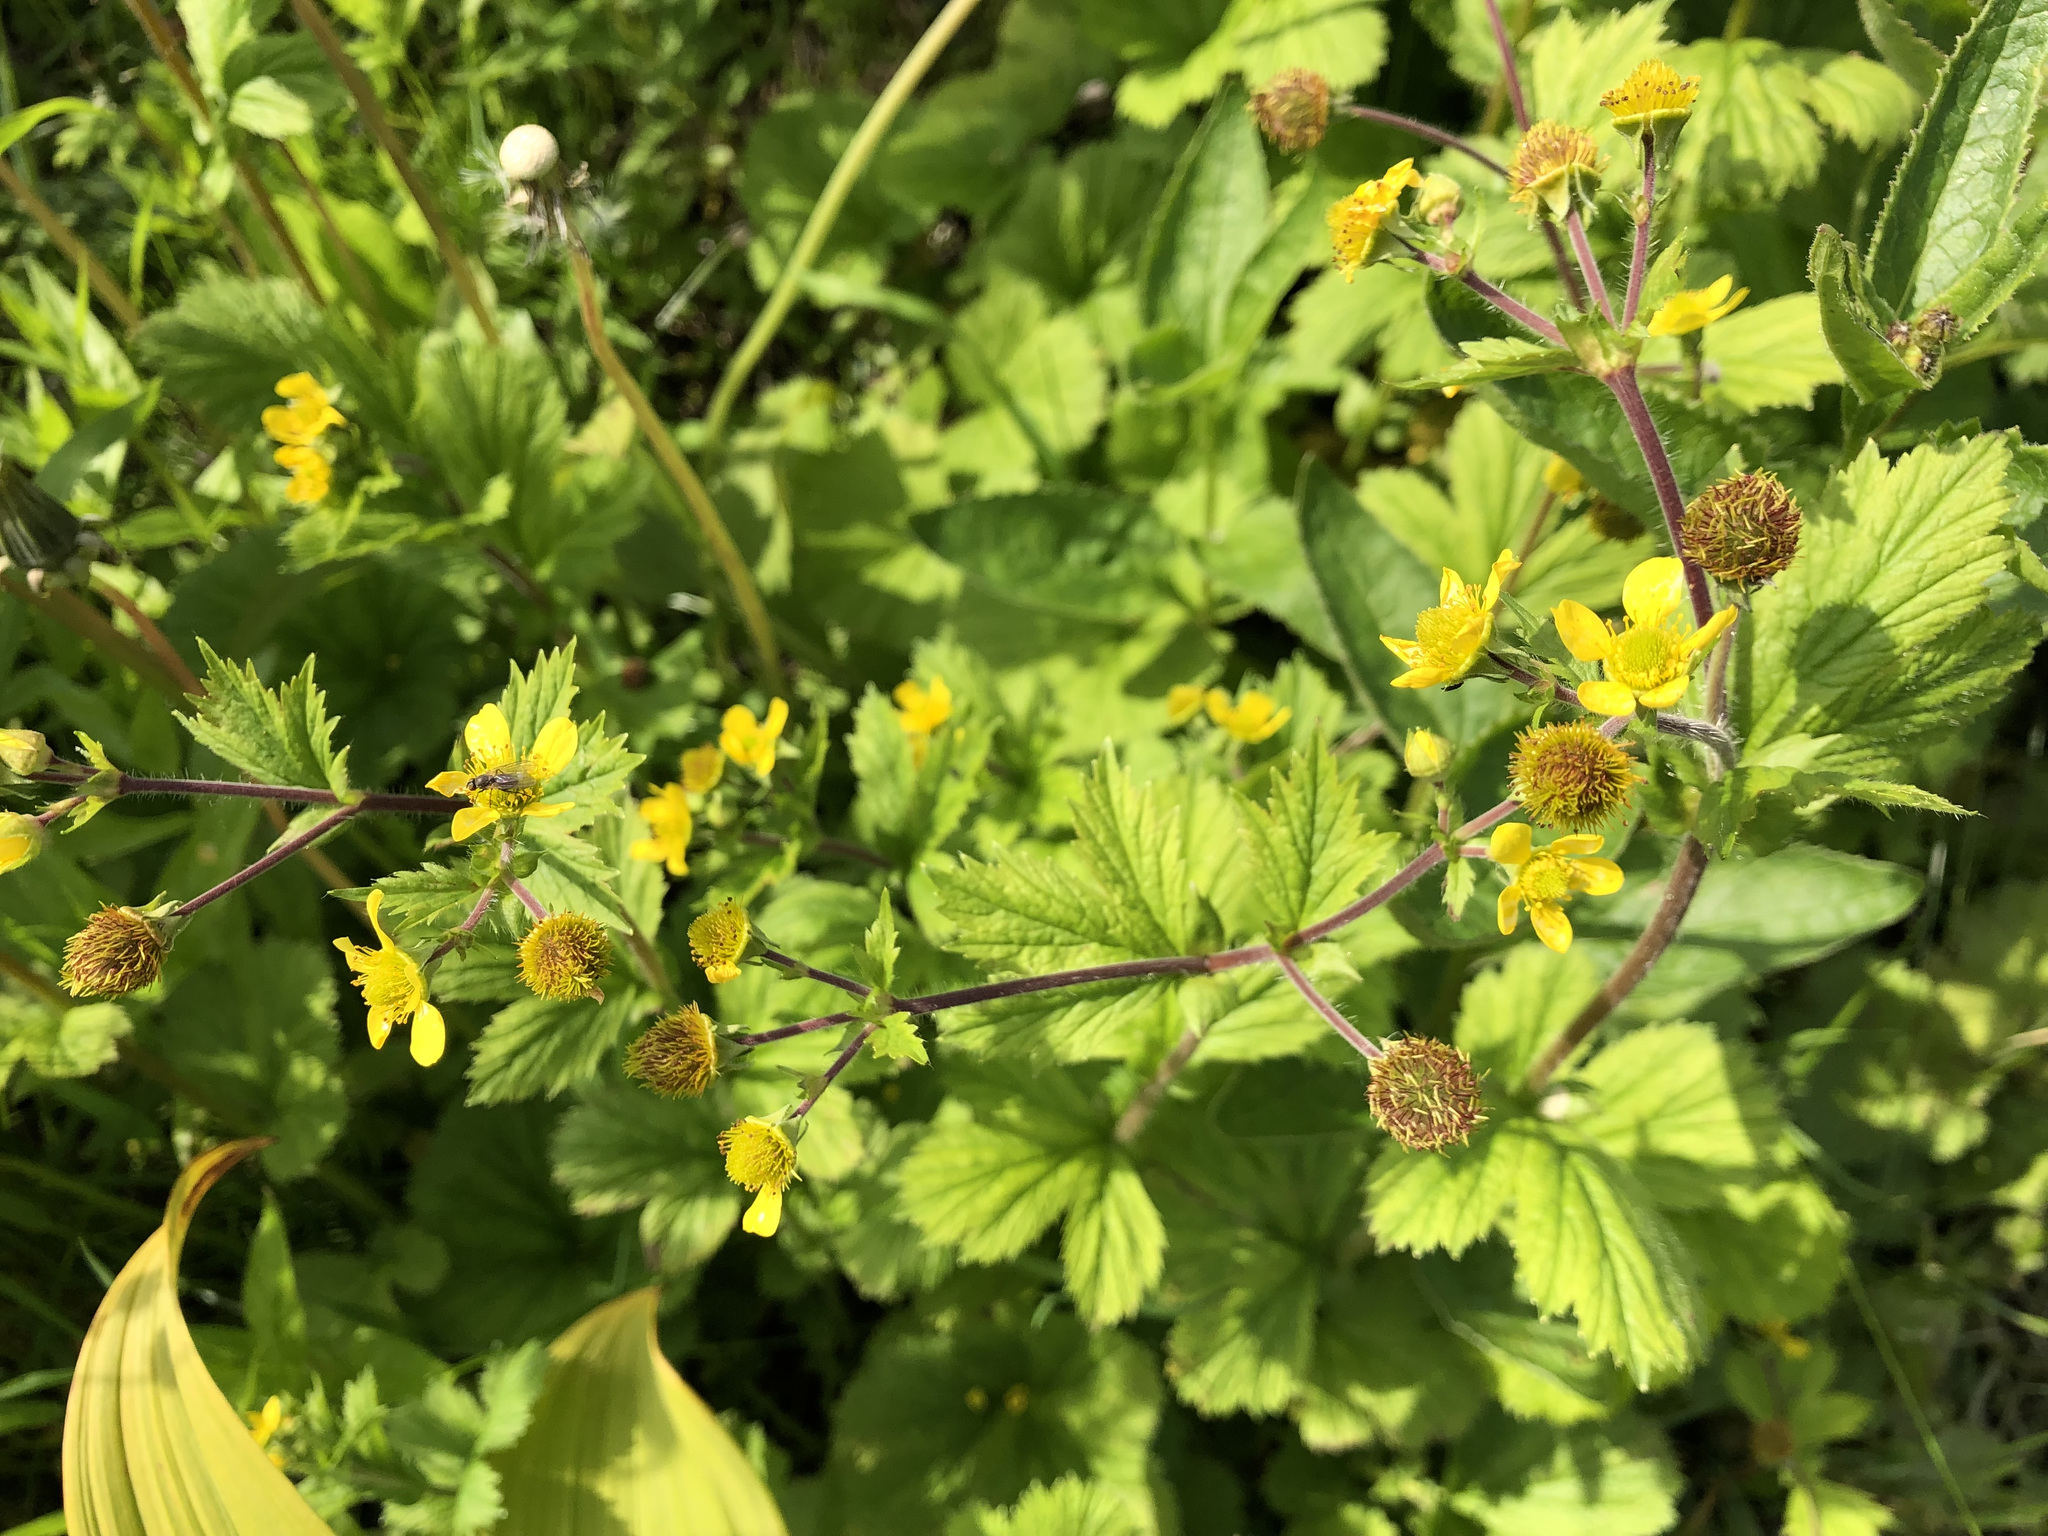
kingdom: Plantae
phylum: Tracheophyta
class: Magnoliopsida
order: Rosales
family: Rosaceae
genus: Geum
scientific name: Geum macrophyllum
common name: Large-leaved avens
